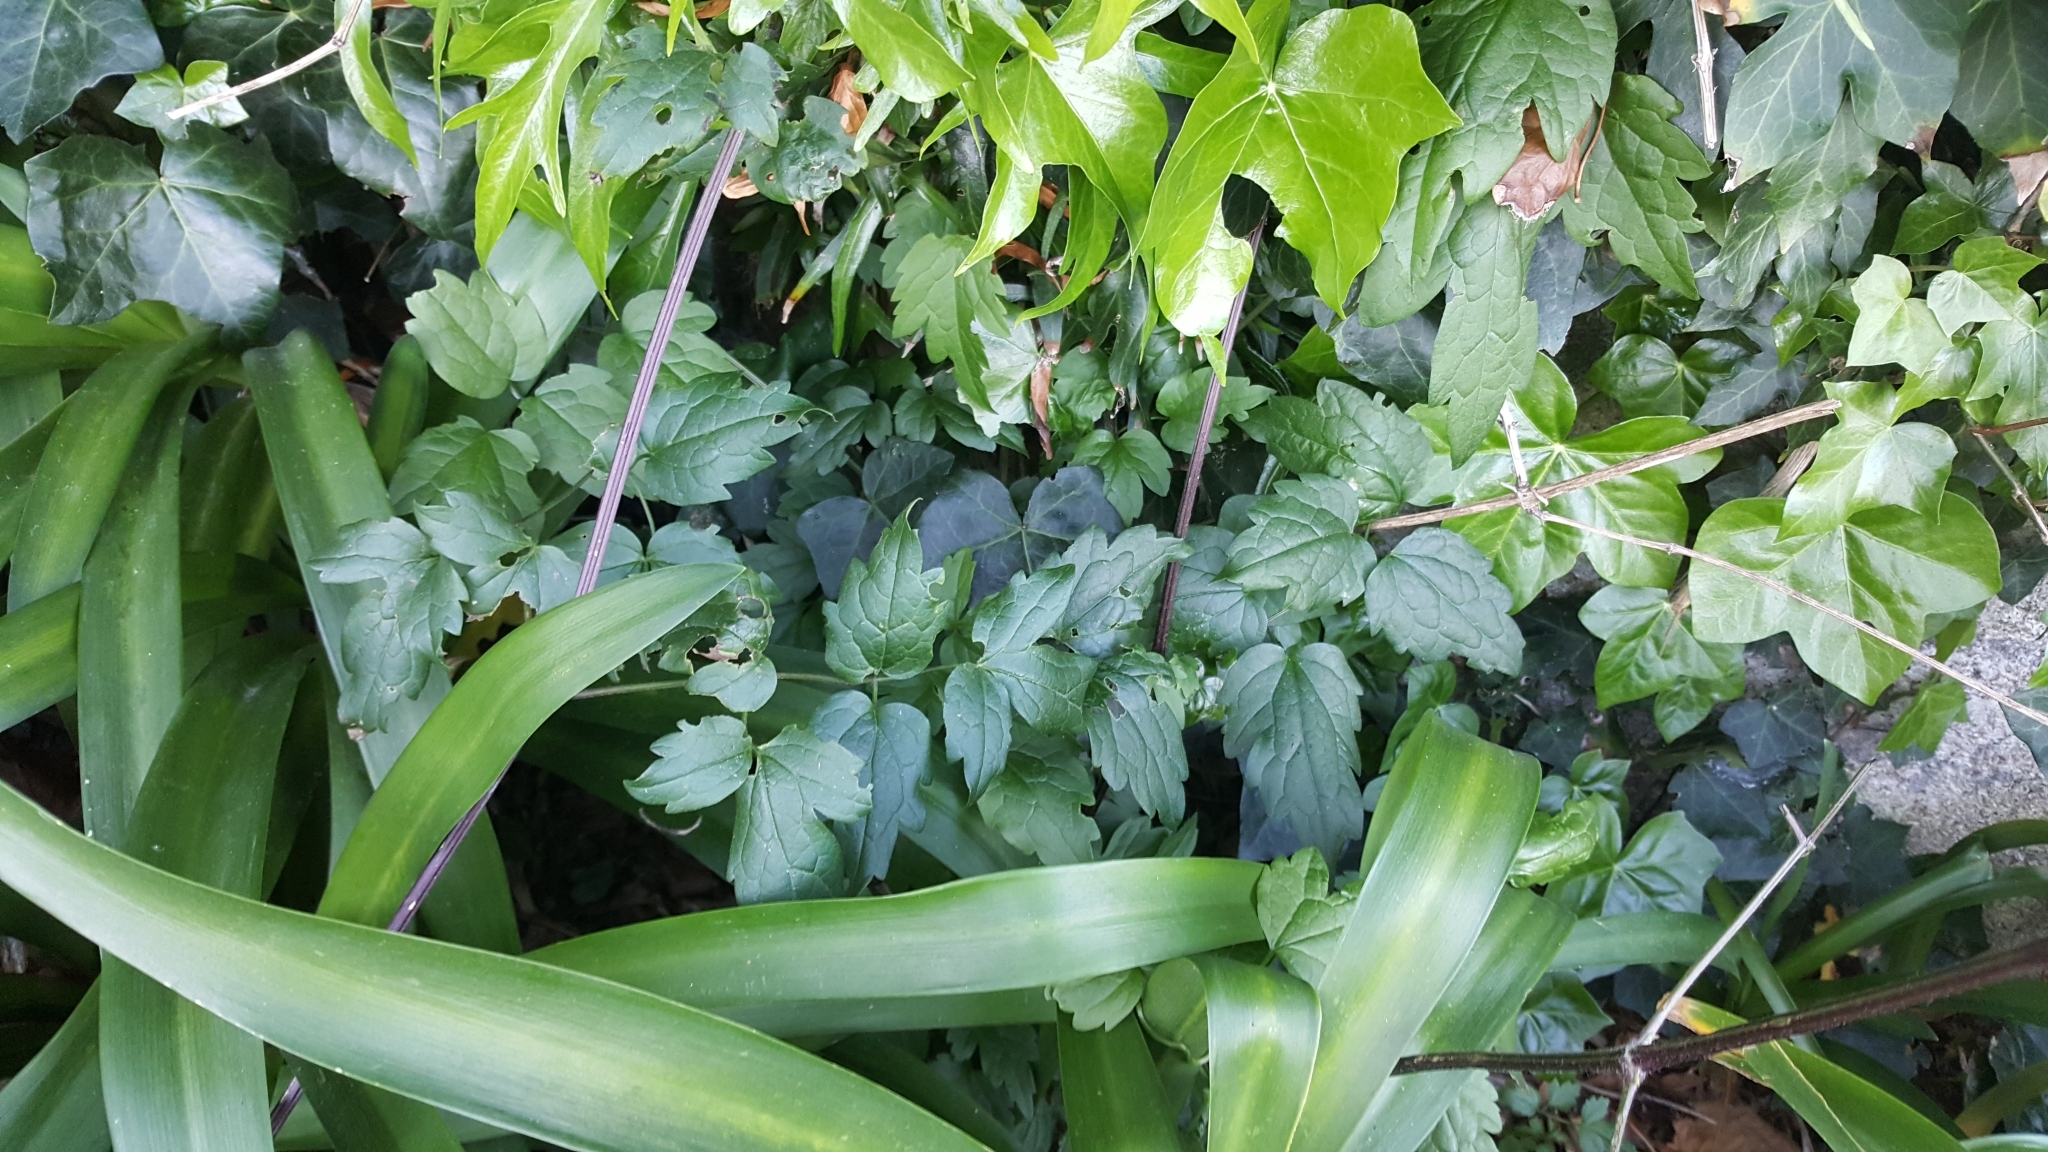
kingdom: Plantae
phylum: Tracheophyta
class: Magnoliopsida
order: Ranunculales
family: Ranunculaceae
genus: Clematis
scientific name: Clematis vitalba
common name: Evergreen clematis
